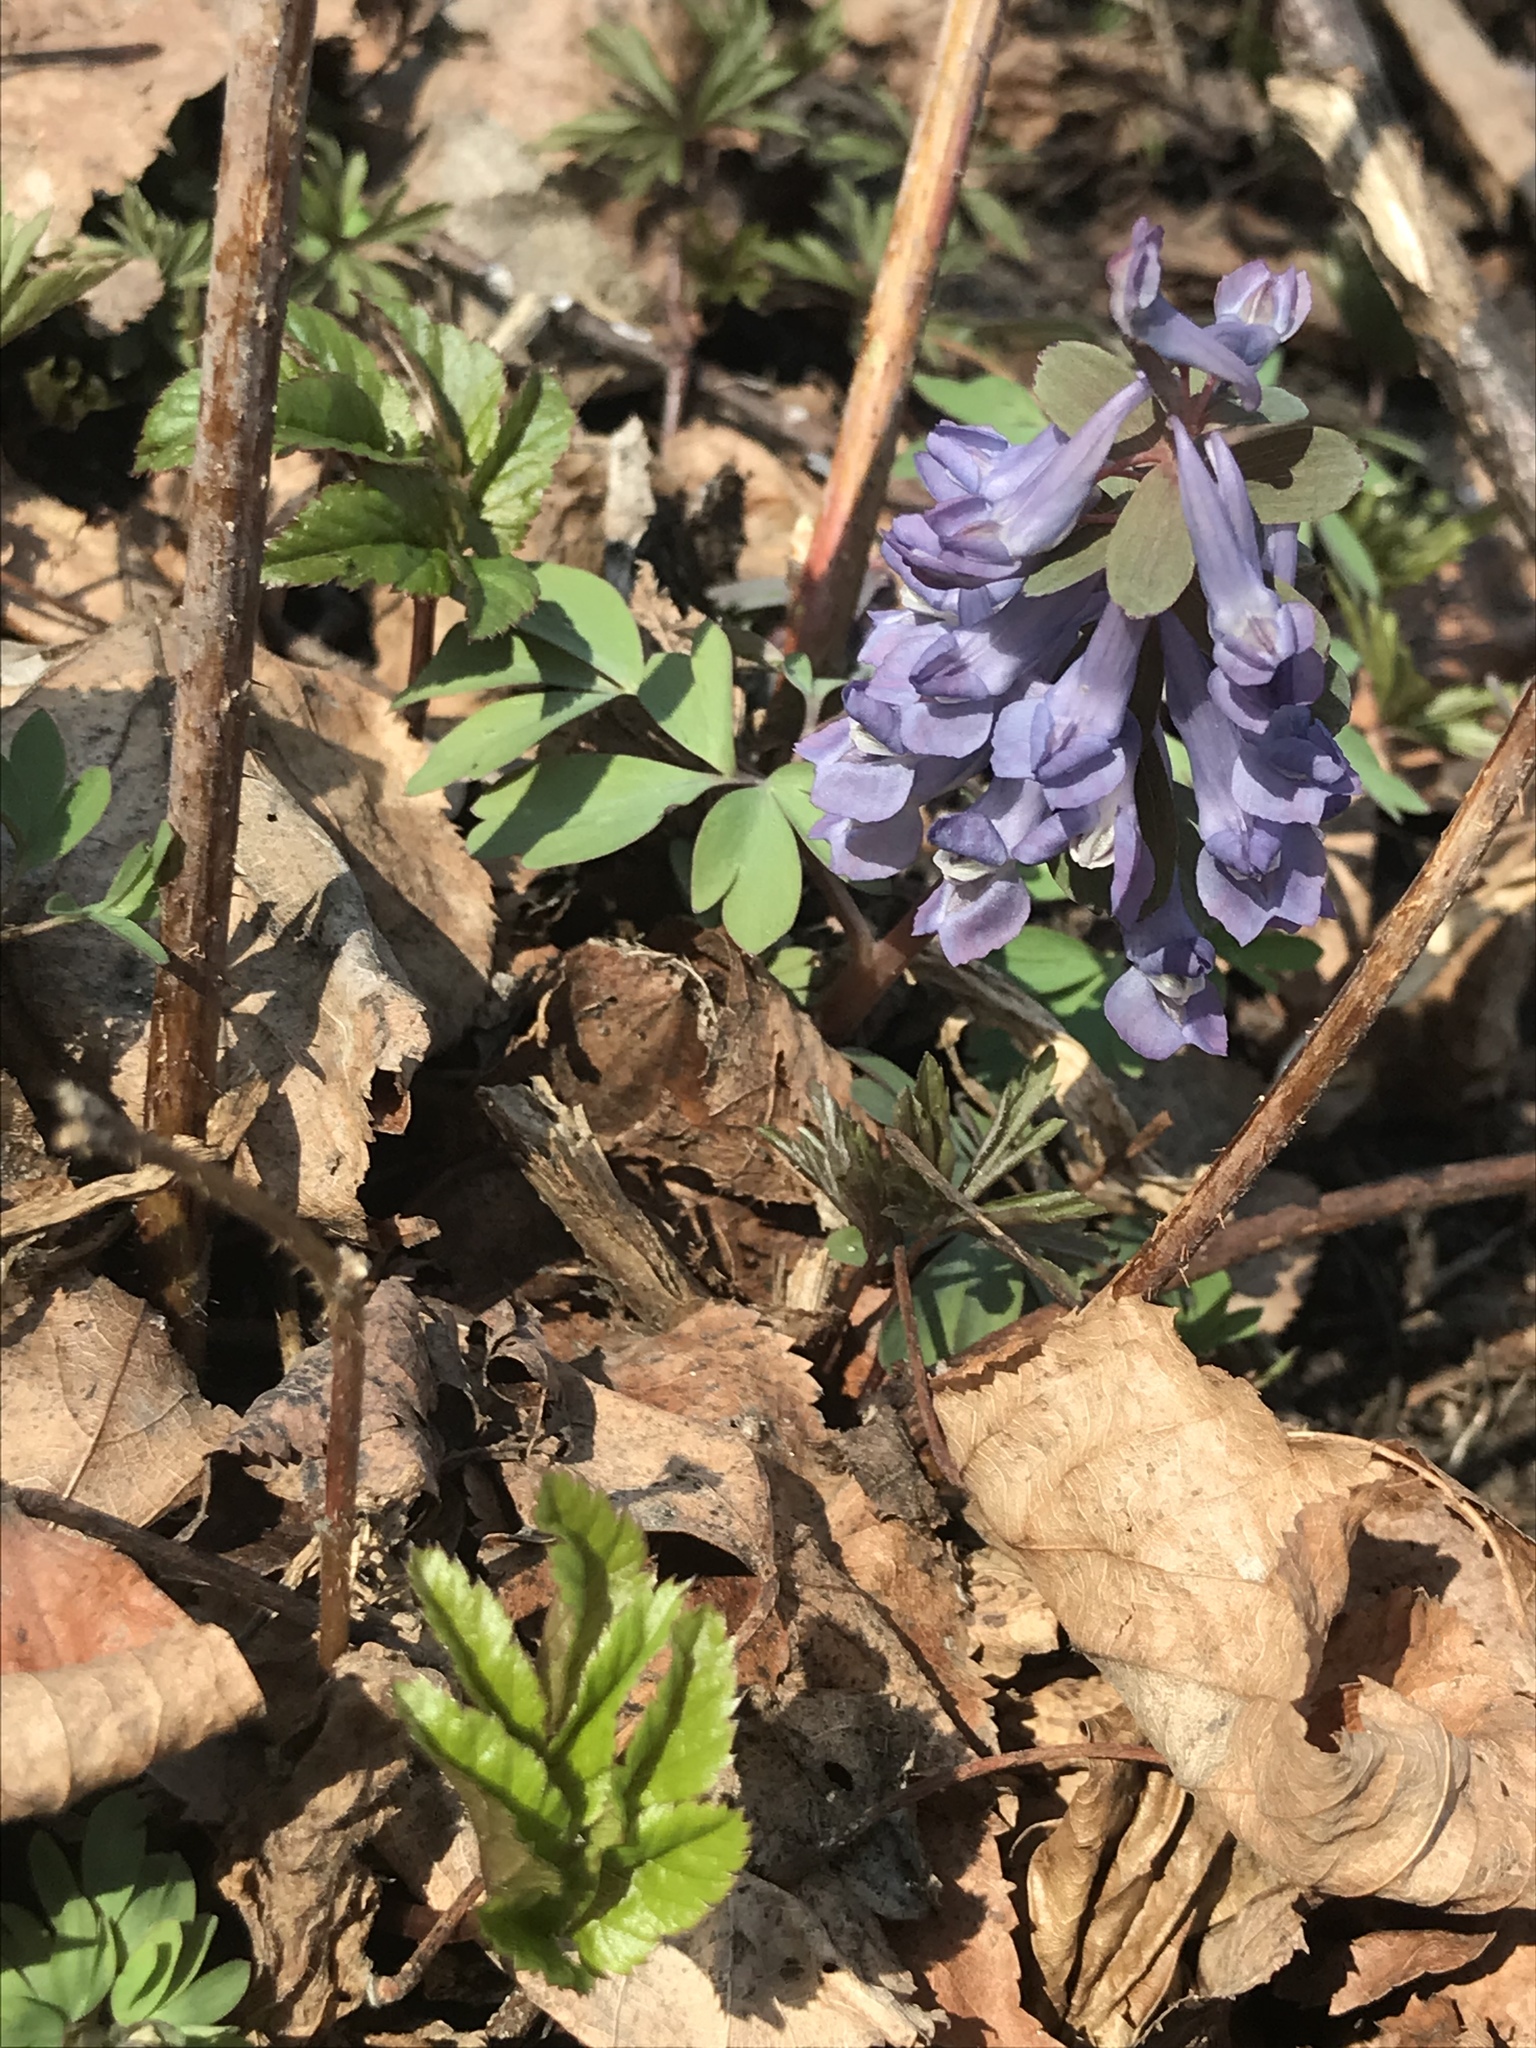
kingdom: Plantae
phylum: Tracheophyta
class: Magnoliopsida
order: Ranunculales
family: Papaveraceae
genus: Corydalis
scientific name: Corydalis solida
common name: Bird-in-a-bush
